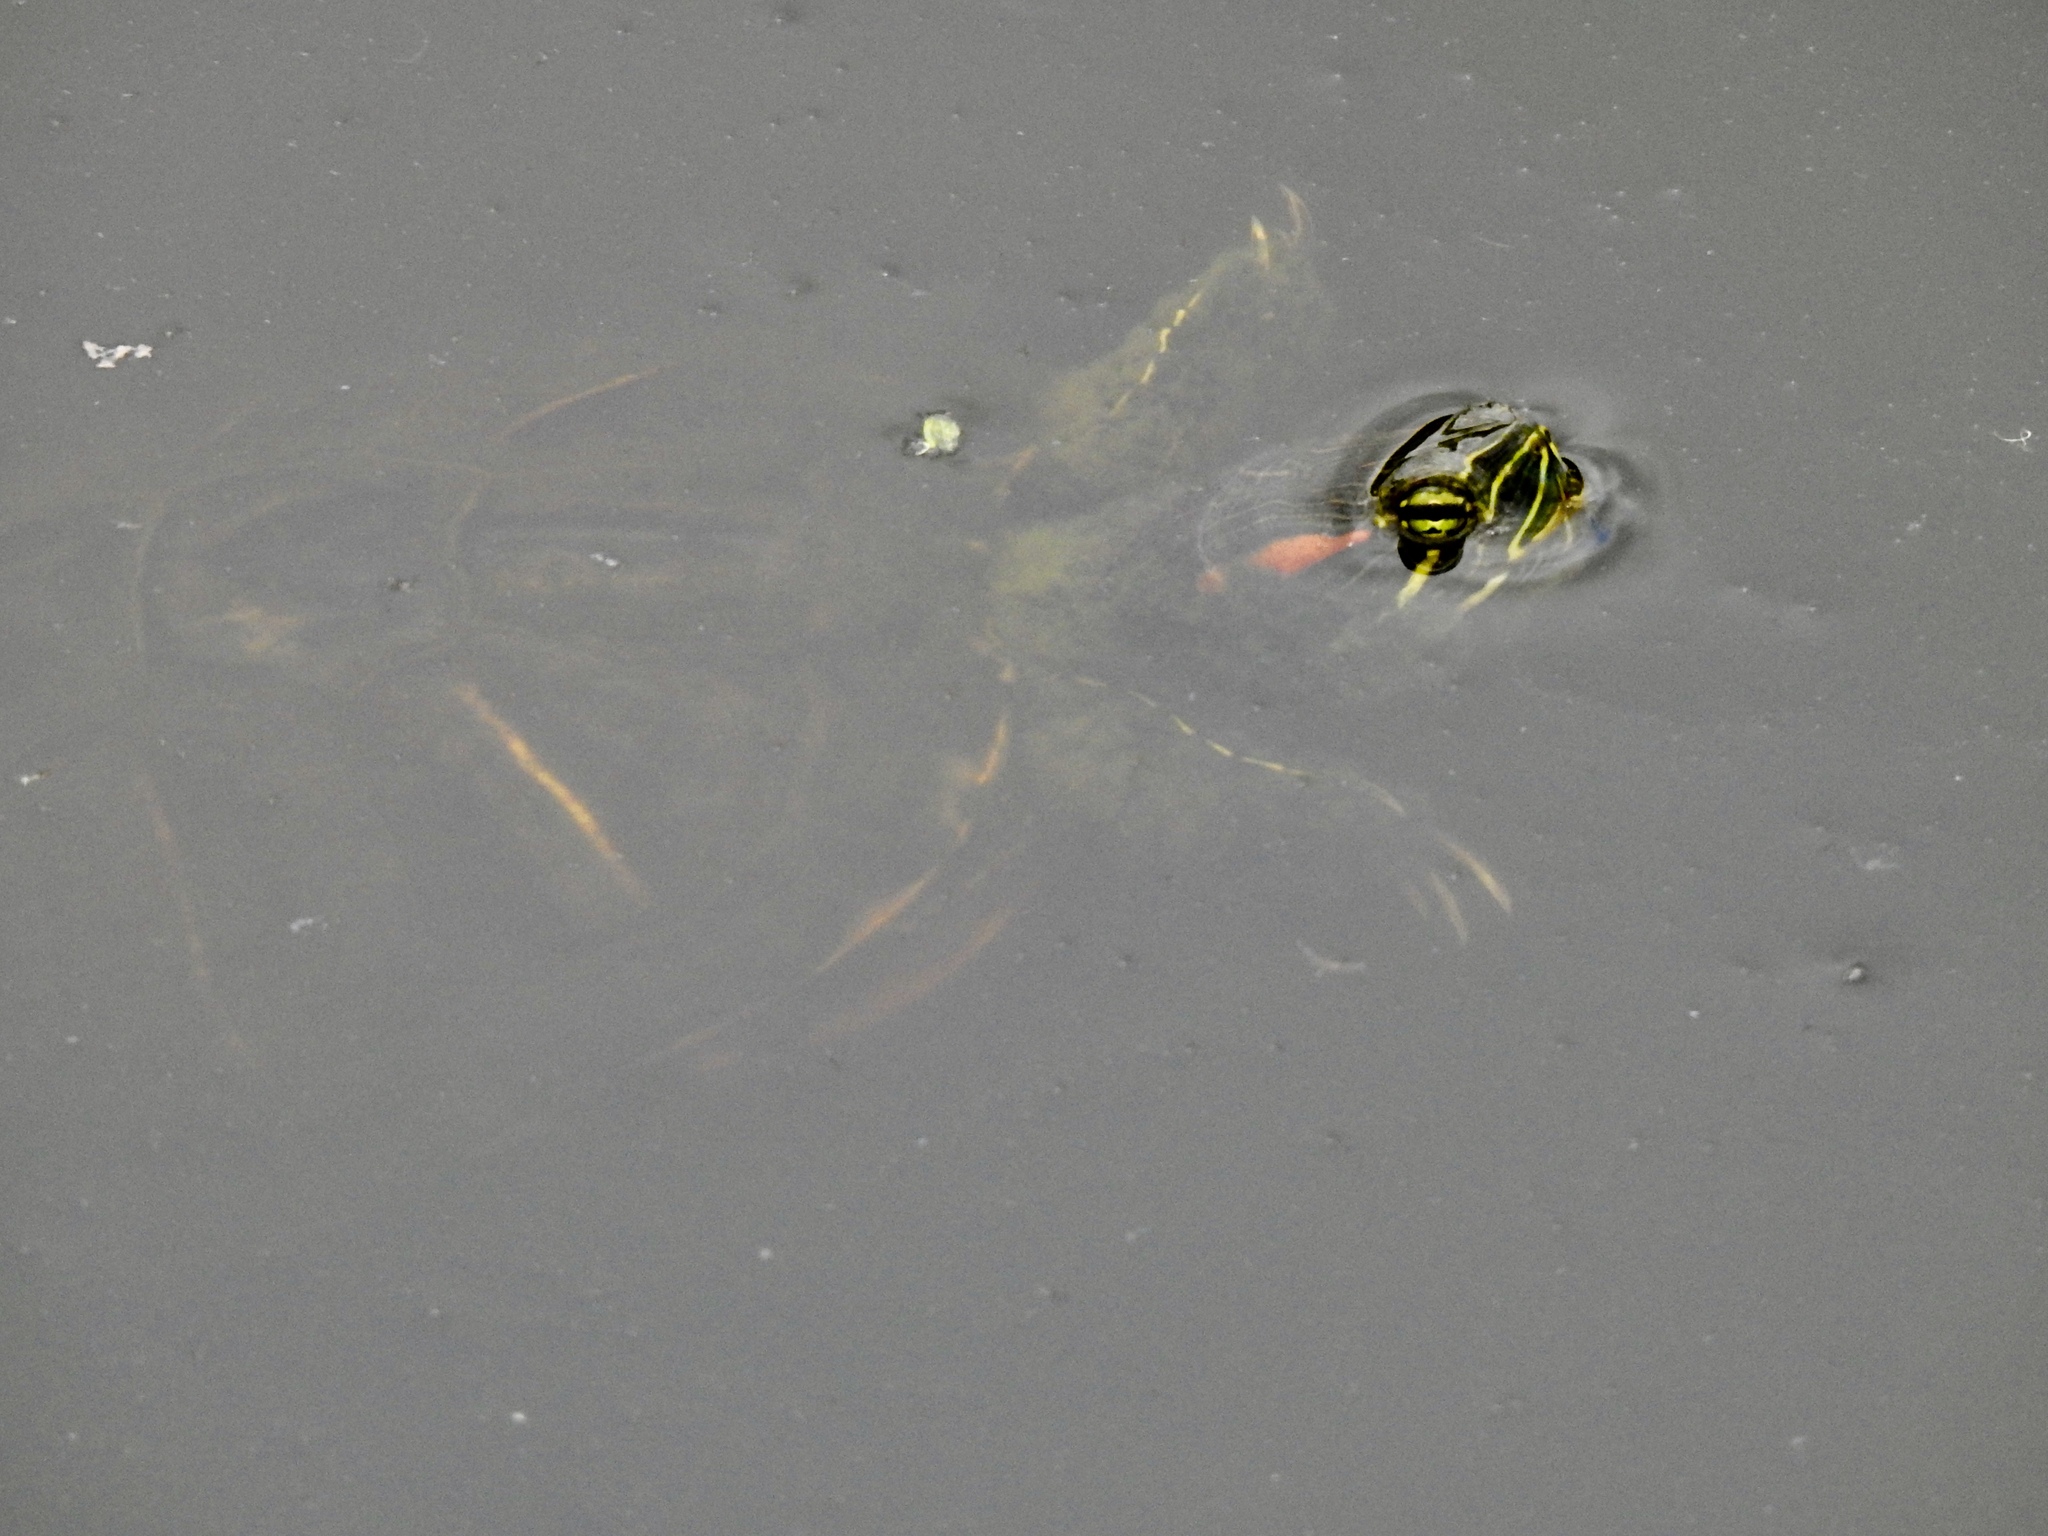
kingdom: Animalia
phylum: Chordata
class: Testudines
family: Emydidae
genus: Trachemys
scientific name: Trachemys scripta
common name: Slider
